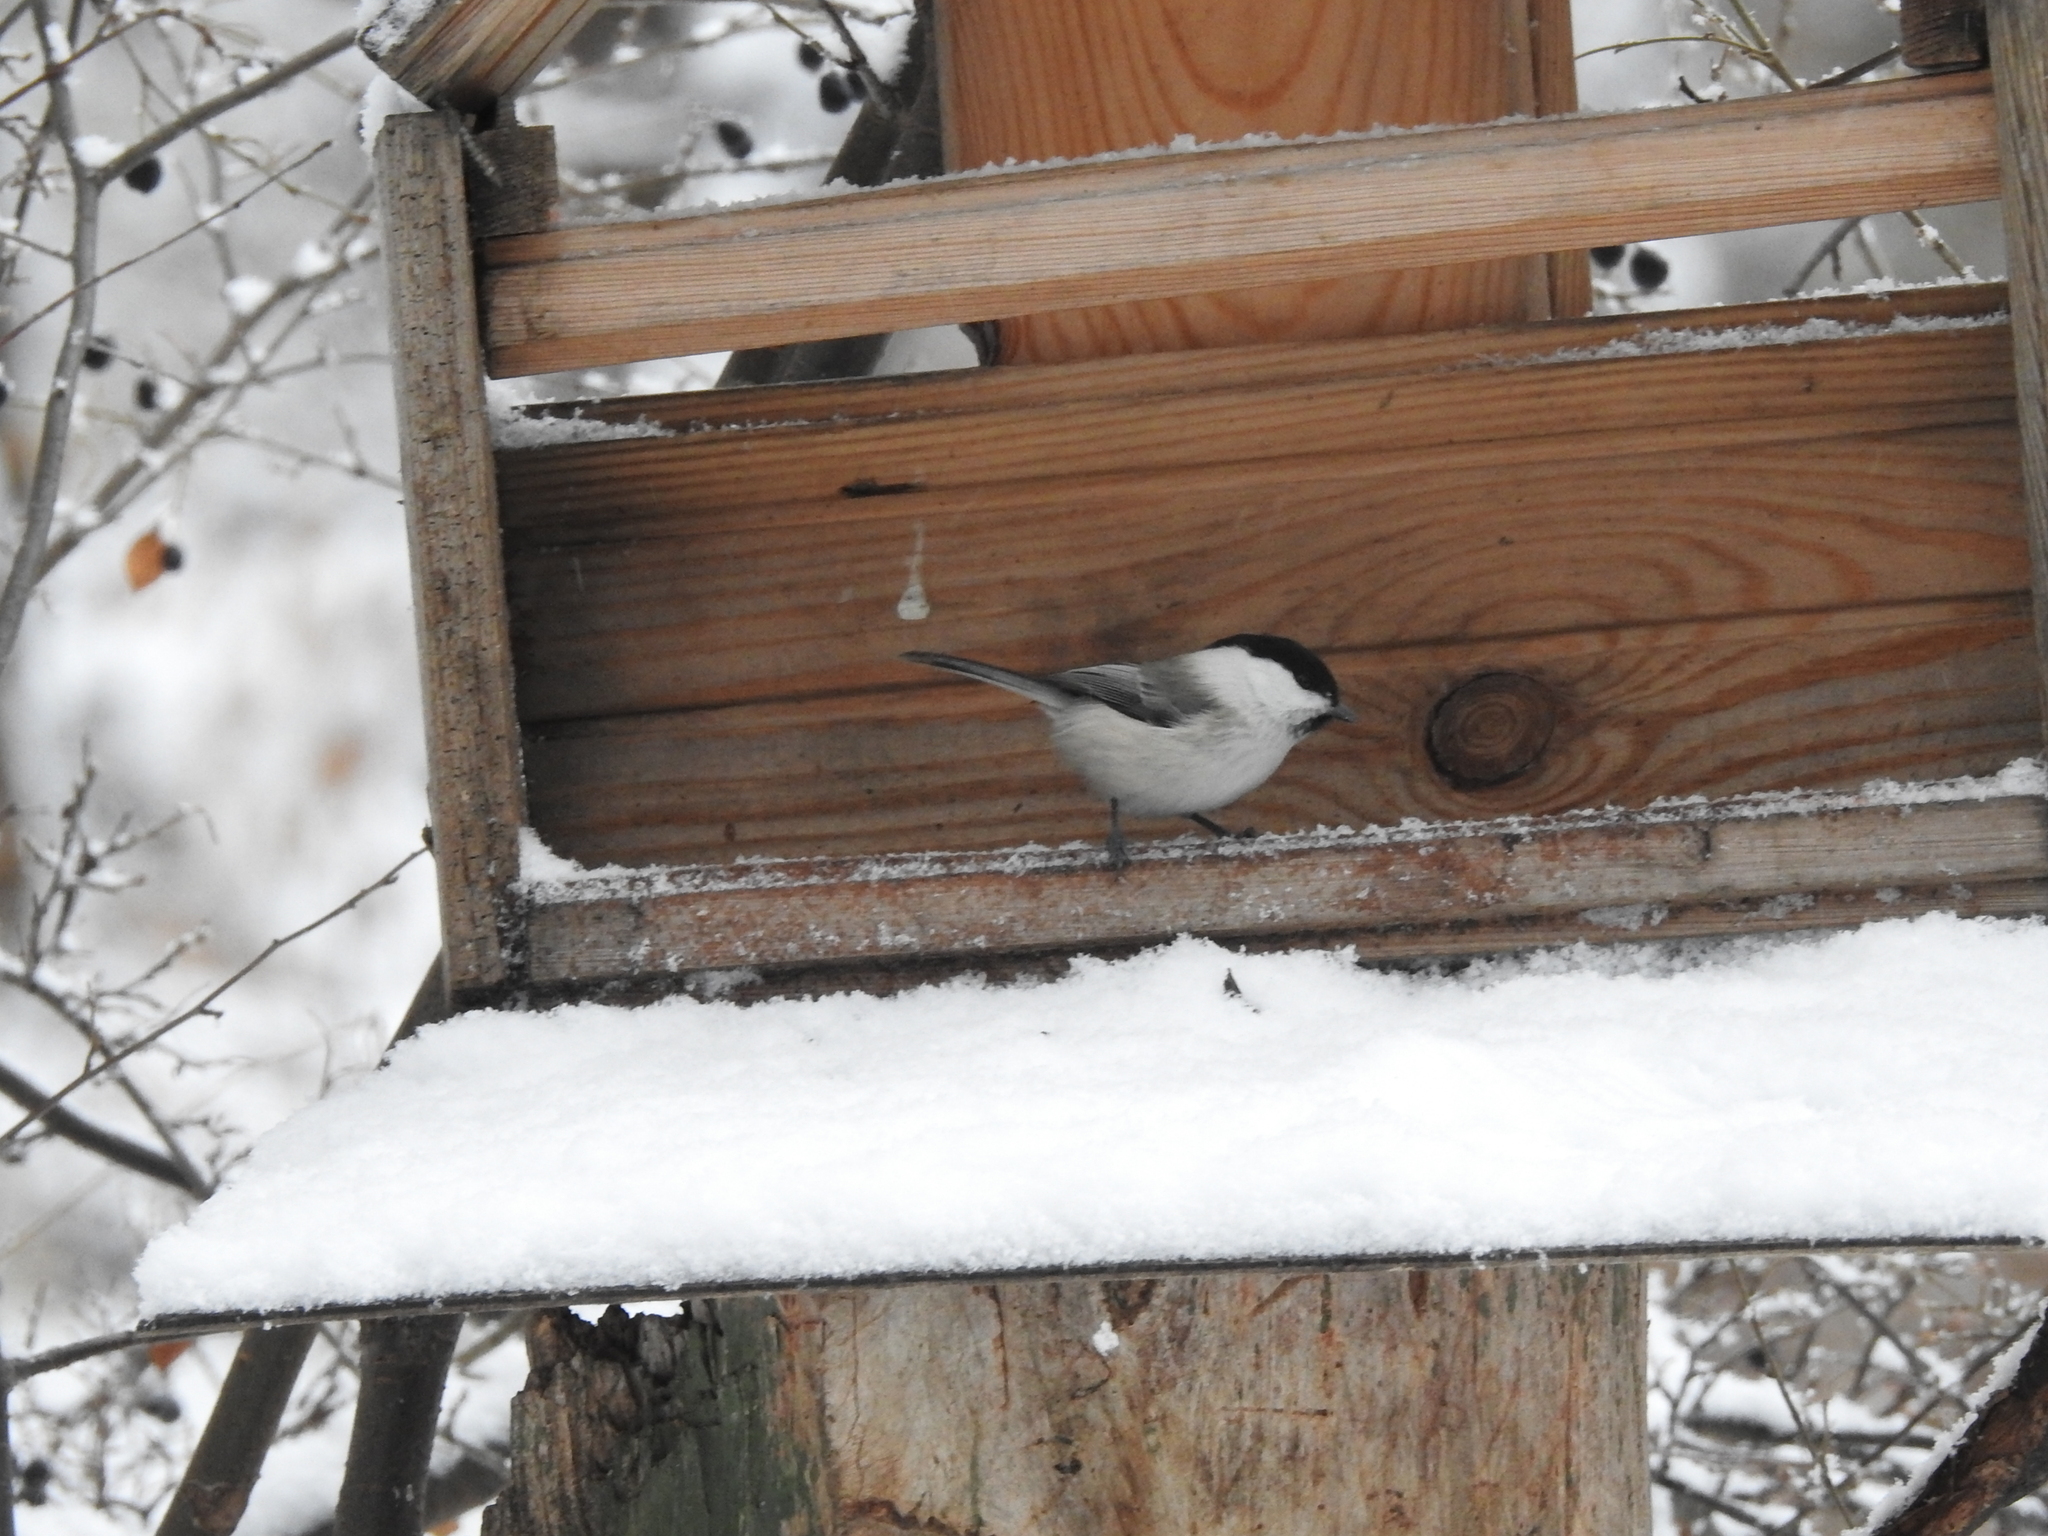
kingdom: Animalia
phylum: Chordata
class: Aves
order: Passeriformes
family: Paridae
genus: Poecile
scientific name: Poecile montanus
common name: Willow tit
